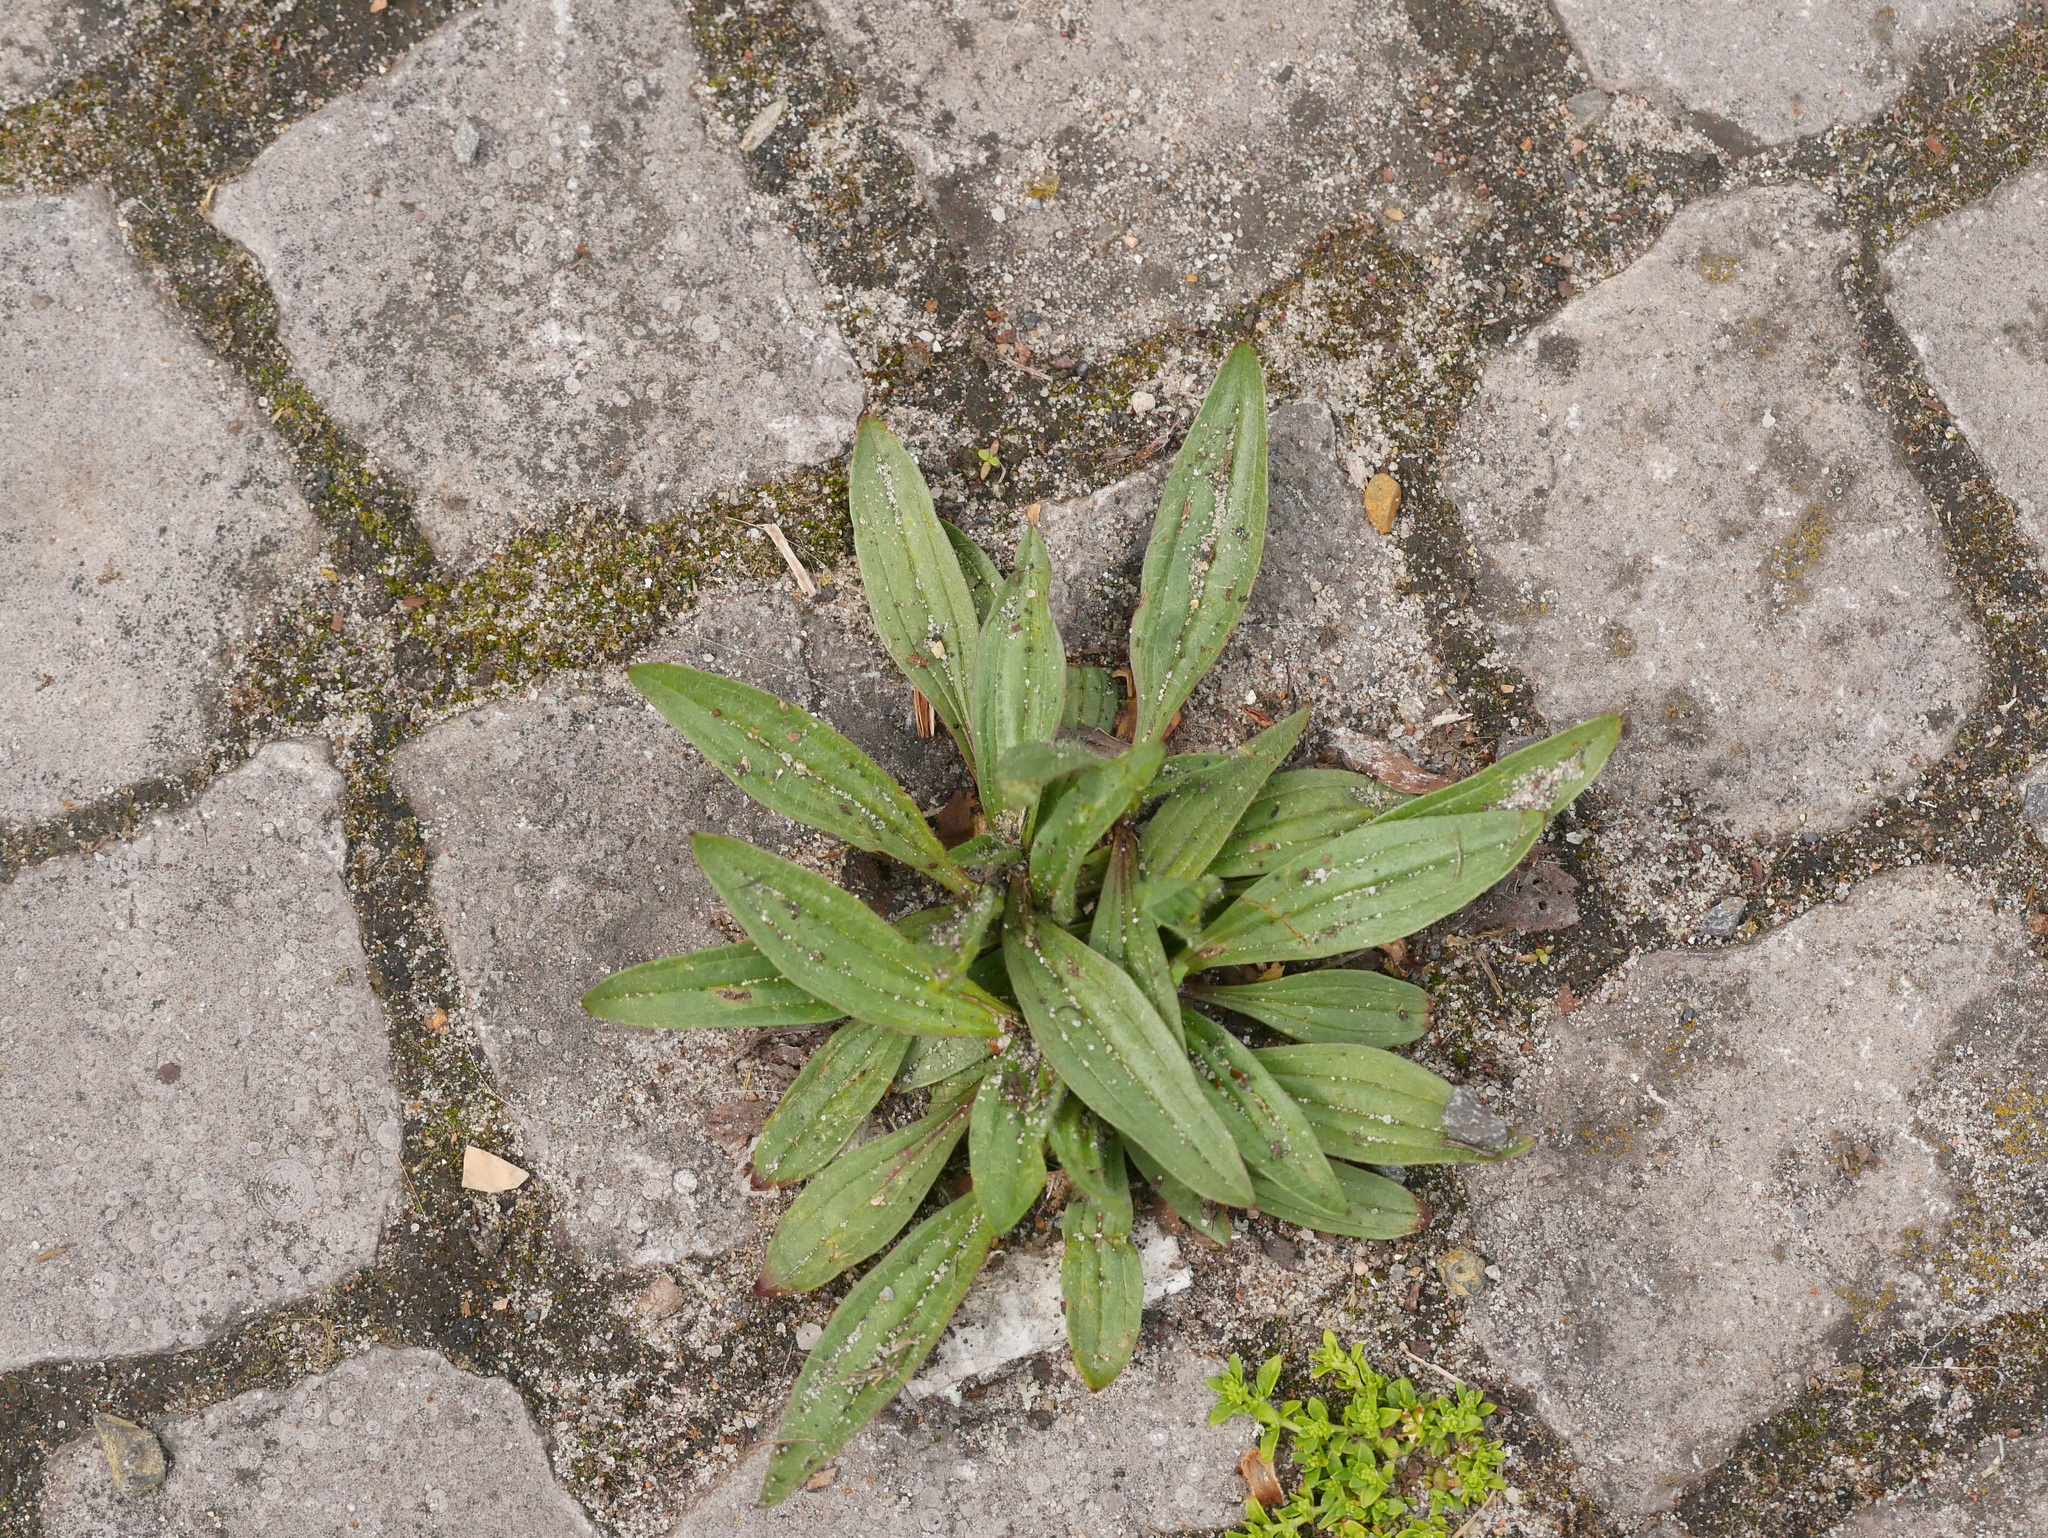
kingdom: Plantae
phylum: Tracheophyta
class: Magnoliopsida
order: Lamiales
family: Plantaginaceae
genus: Plantago
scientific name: Plantago lanceolata
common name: Ribwort plantain
